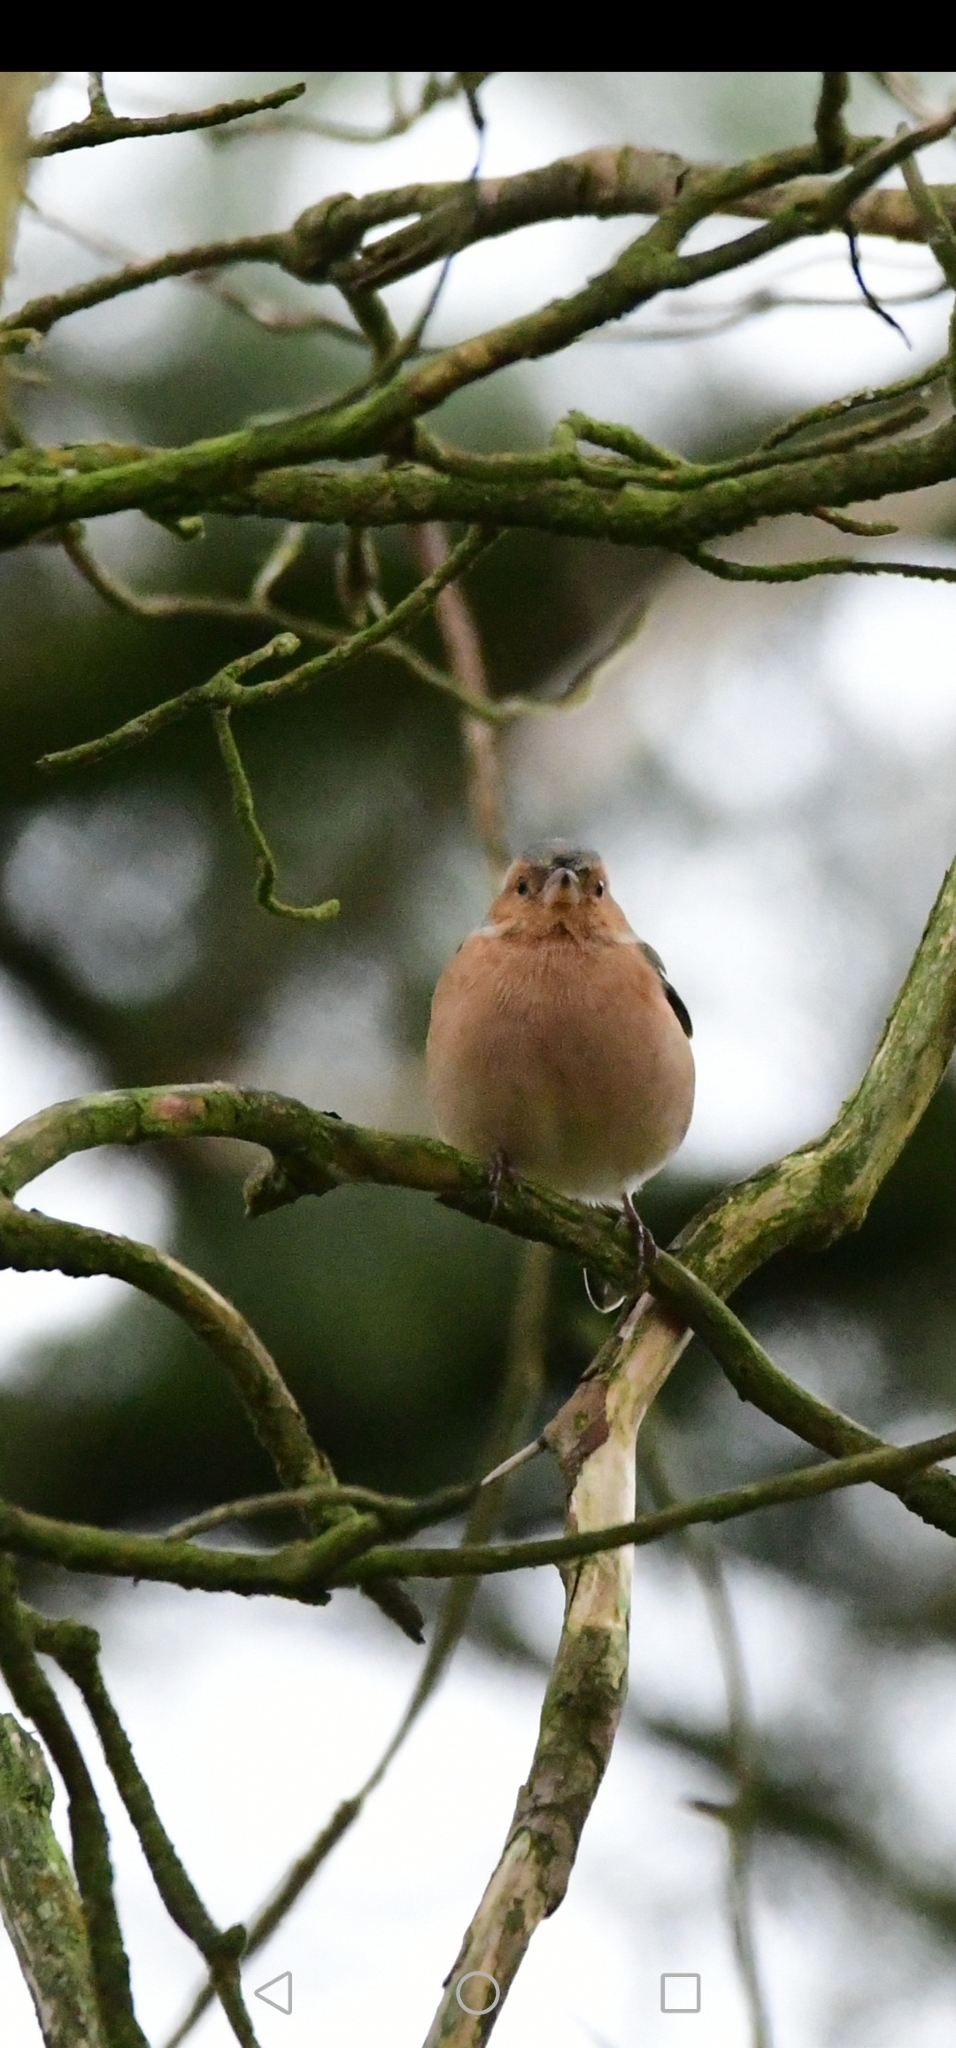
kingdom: Animalia
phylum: Chordata
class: Aves
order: Passeriformes
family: Fringillidae
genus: Fringilla
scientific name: Fringilla coelebs
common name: Common chaffinch
